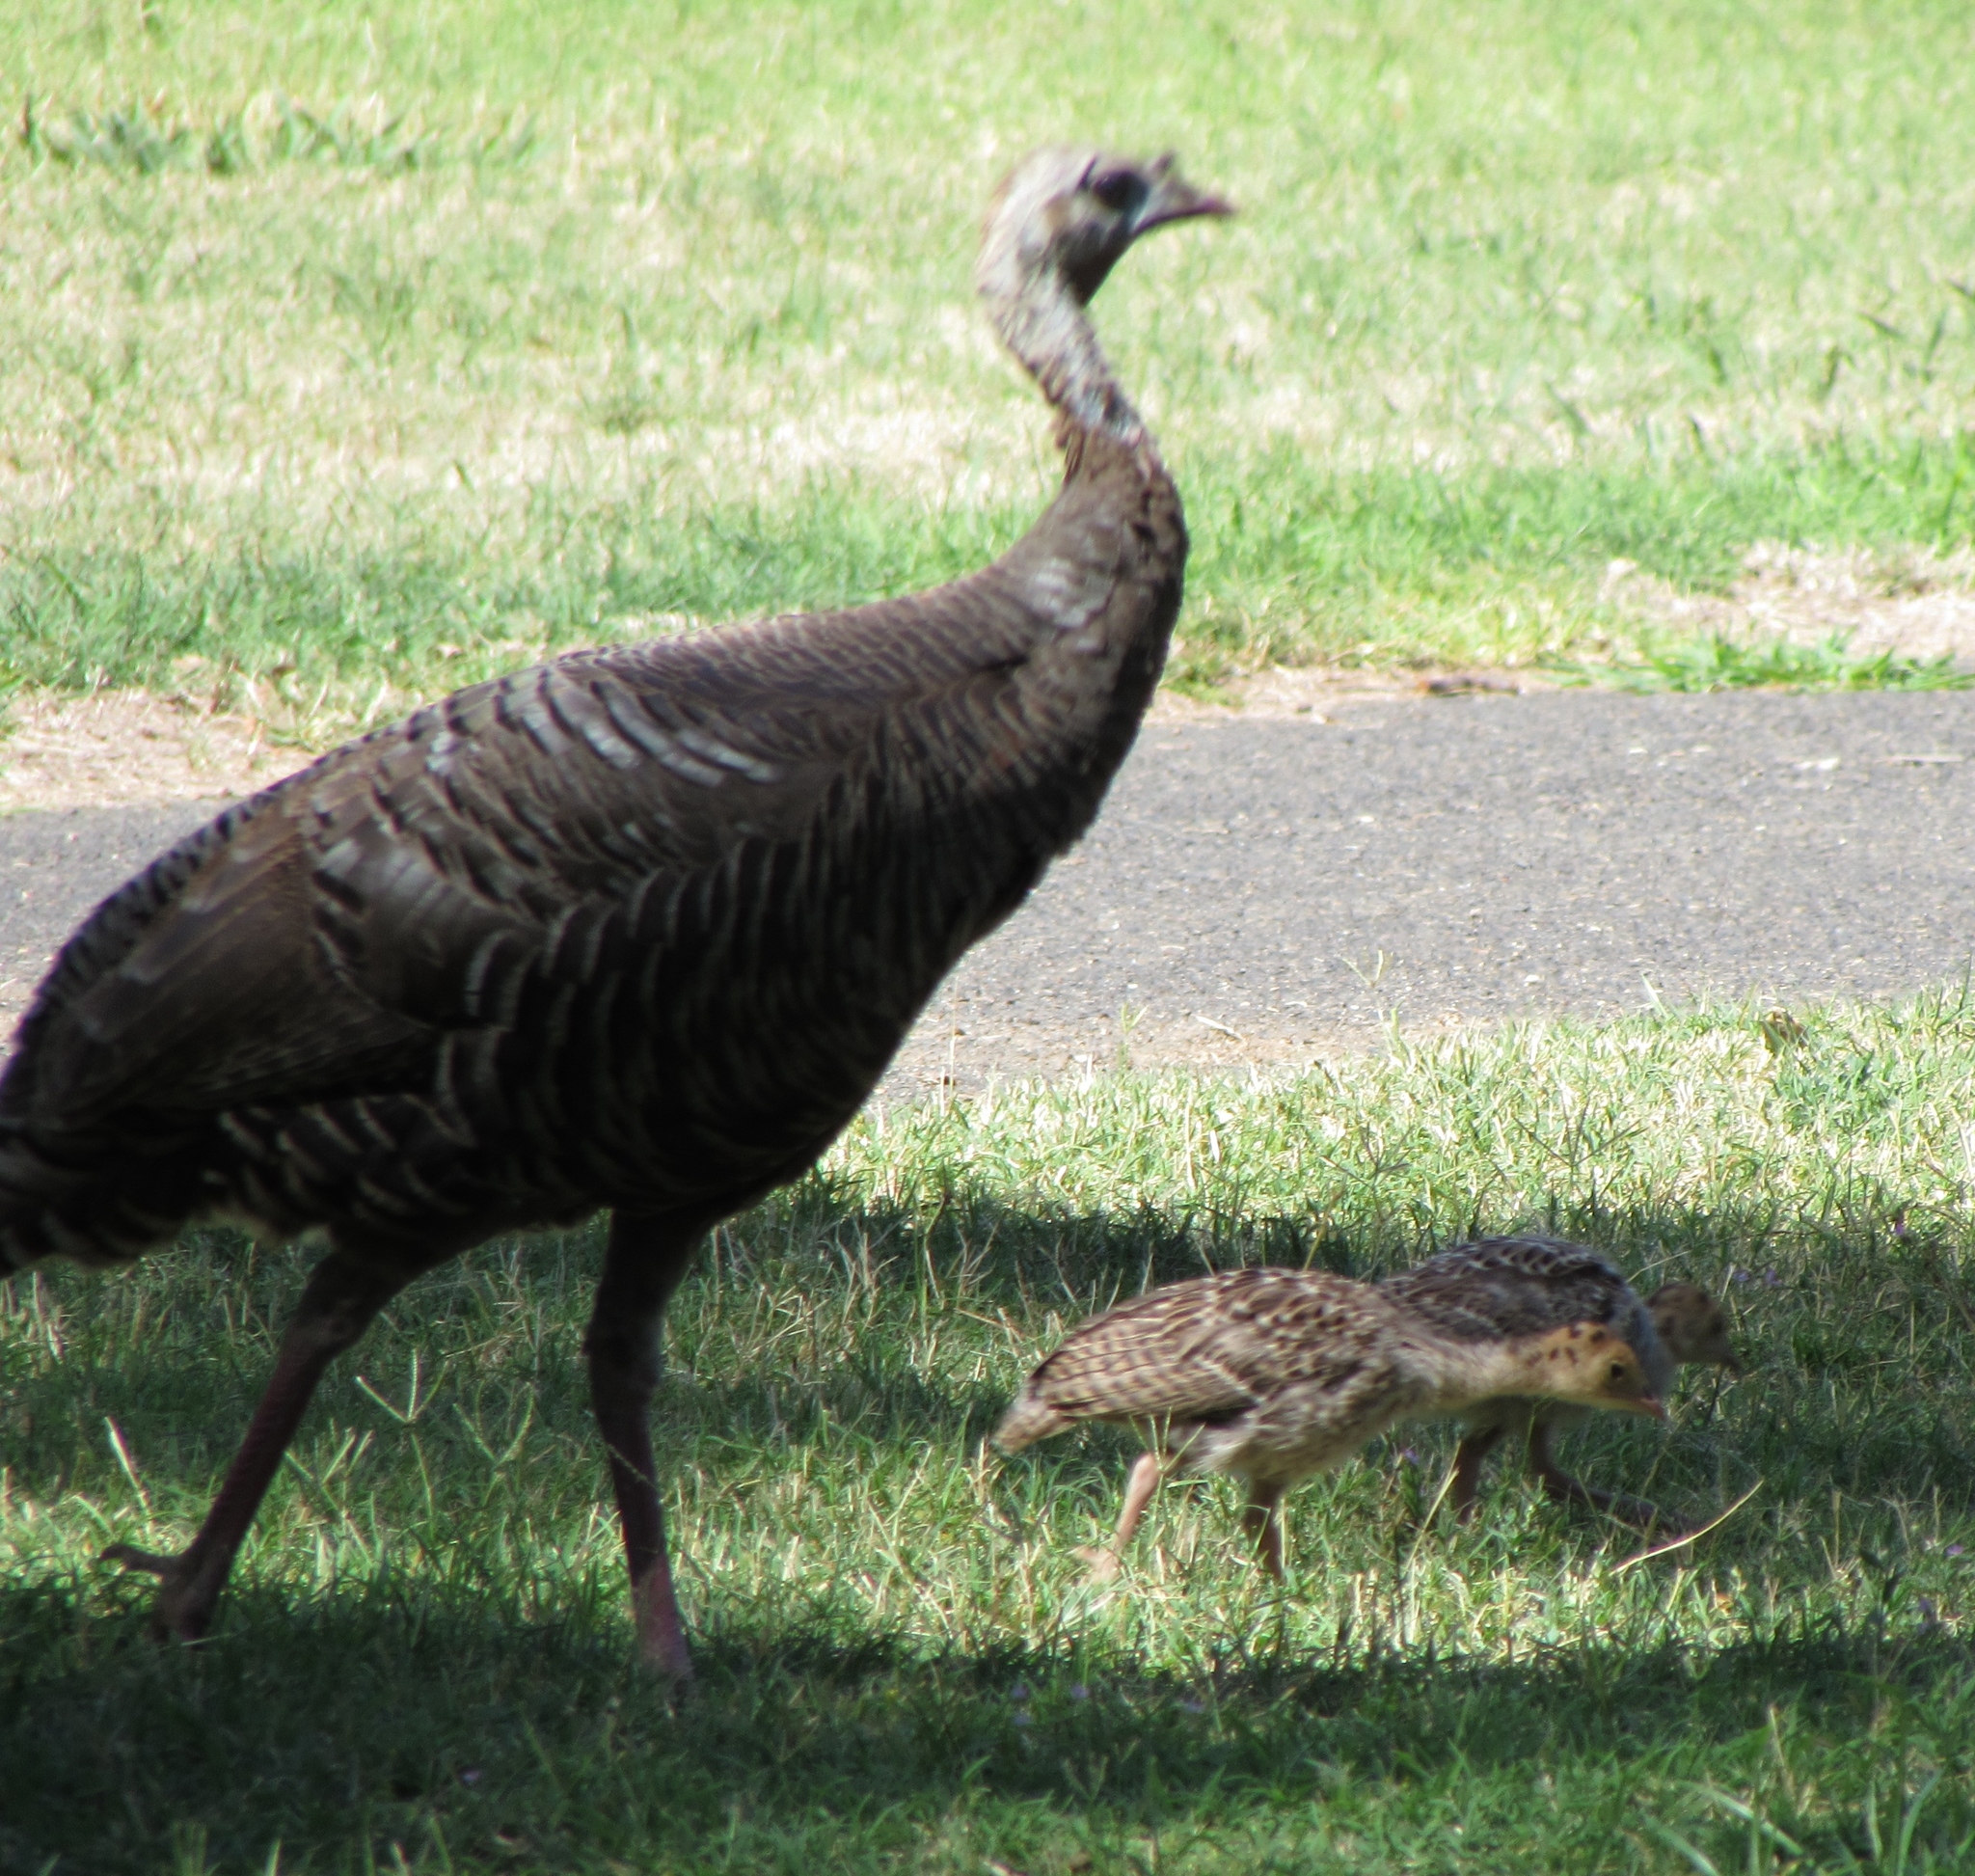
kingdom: Animalia
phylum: Chordata
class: Aves
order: Galliformes
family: Phasianidae
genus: Meleagris
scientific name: Meleagris gallopavo
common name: Wild turkey
